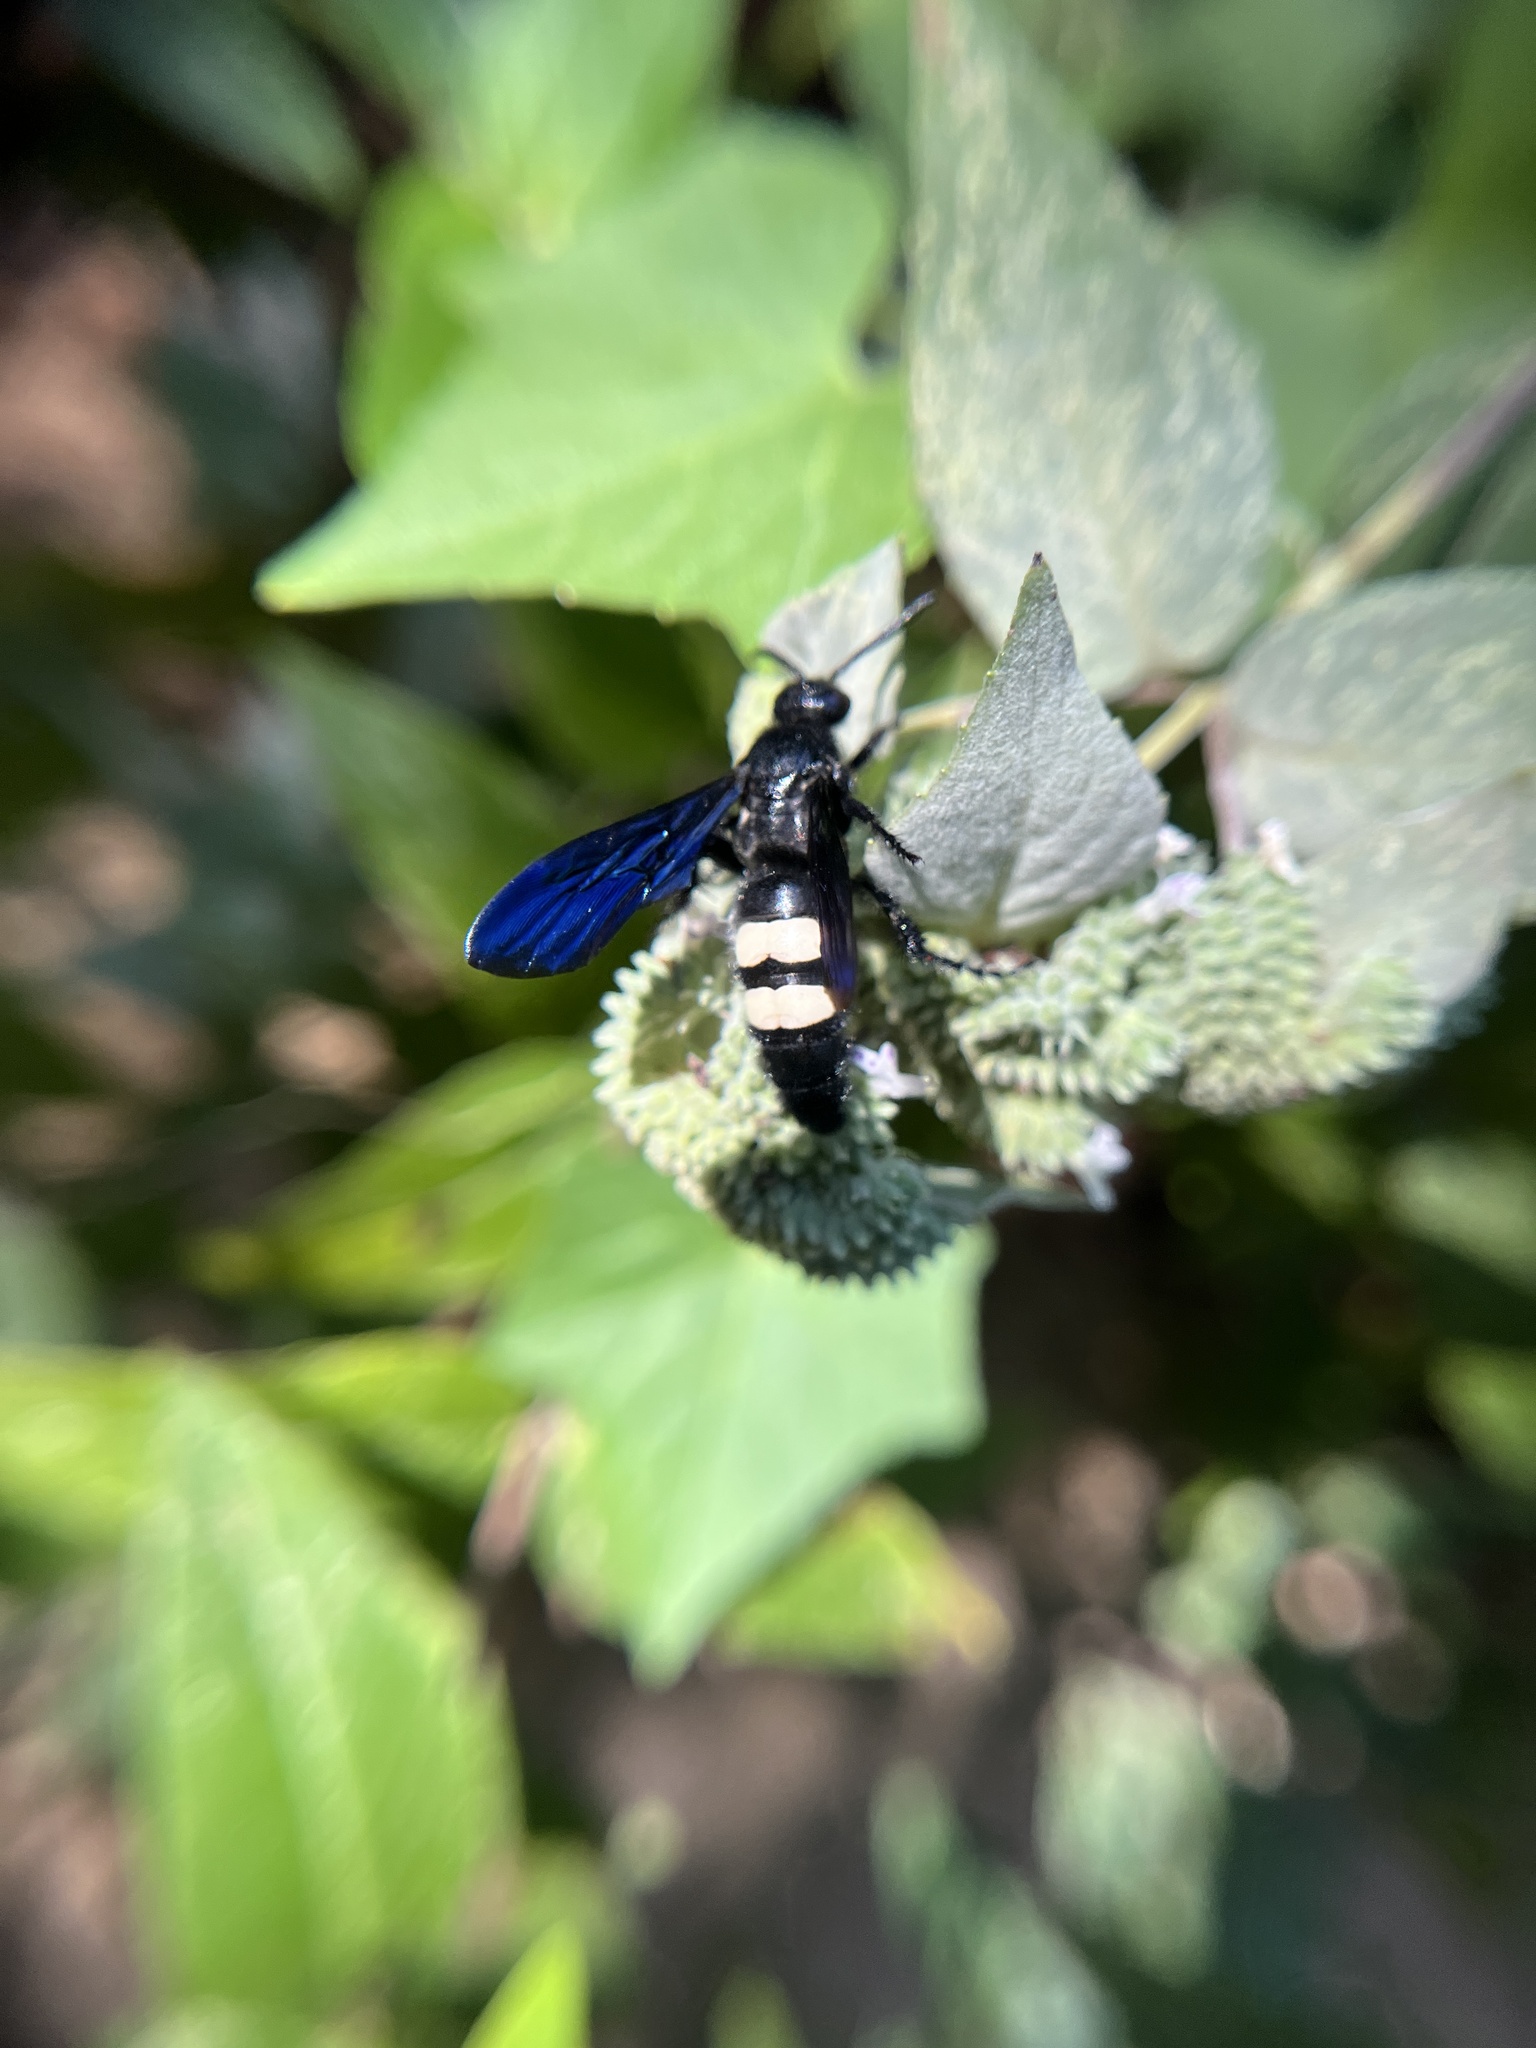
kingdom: Animalia
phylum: Arthropoda
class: Insecta
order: Hymenoptera
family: Scoliidae
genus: Scolia
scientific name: Scolia bicincta
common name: Double-banded scoliid wasp
